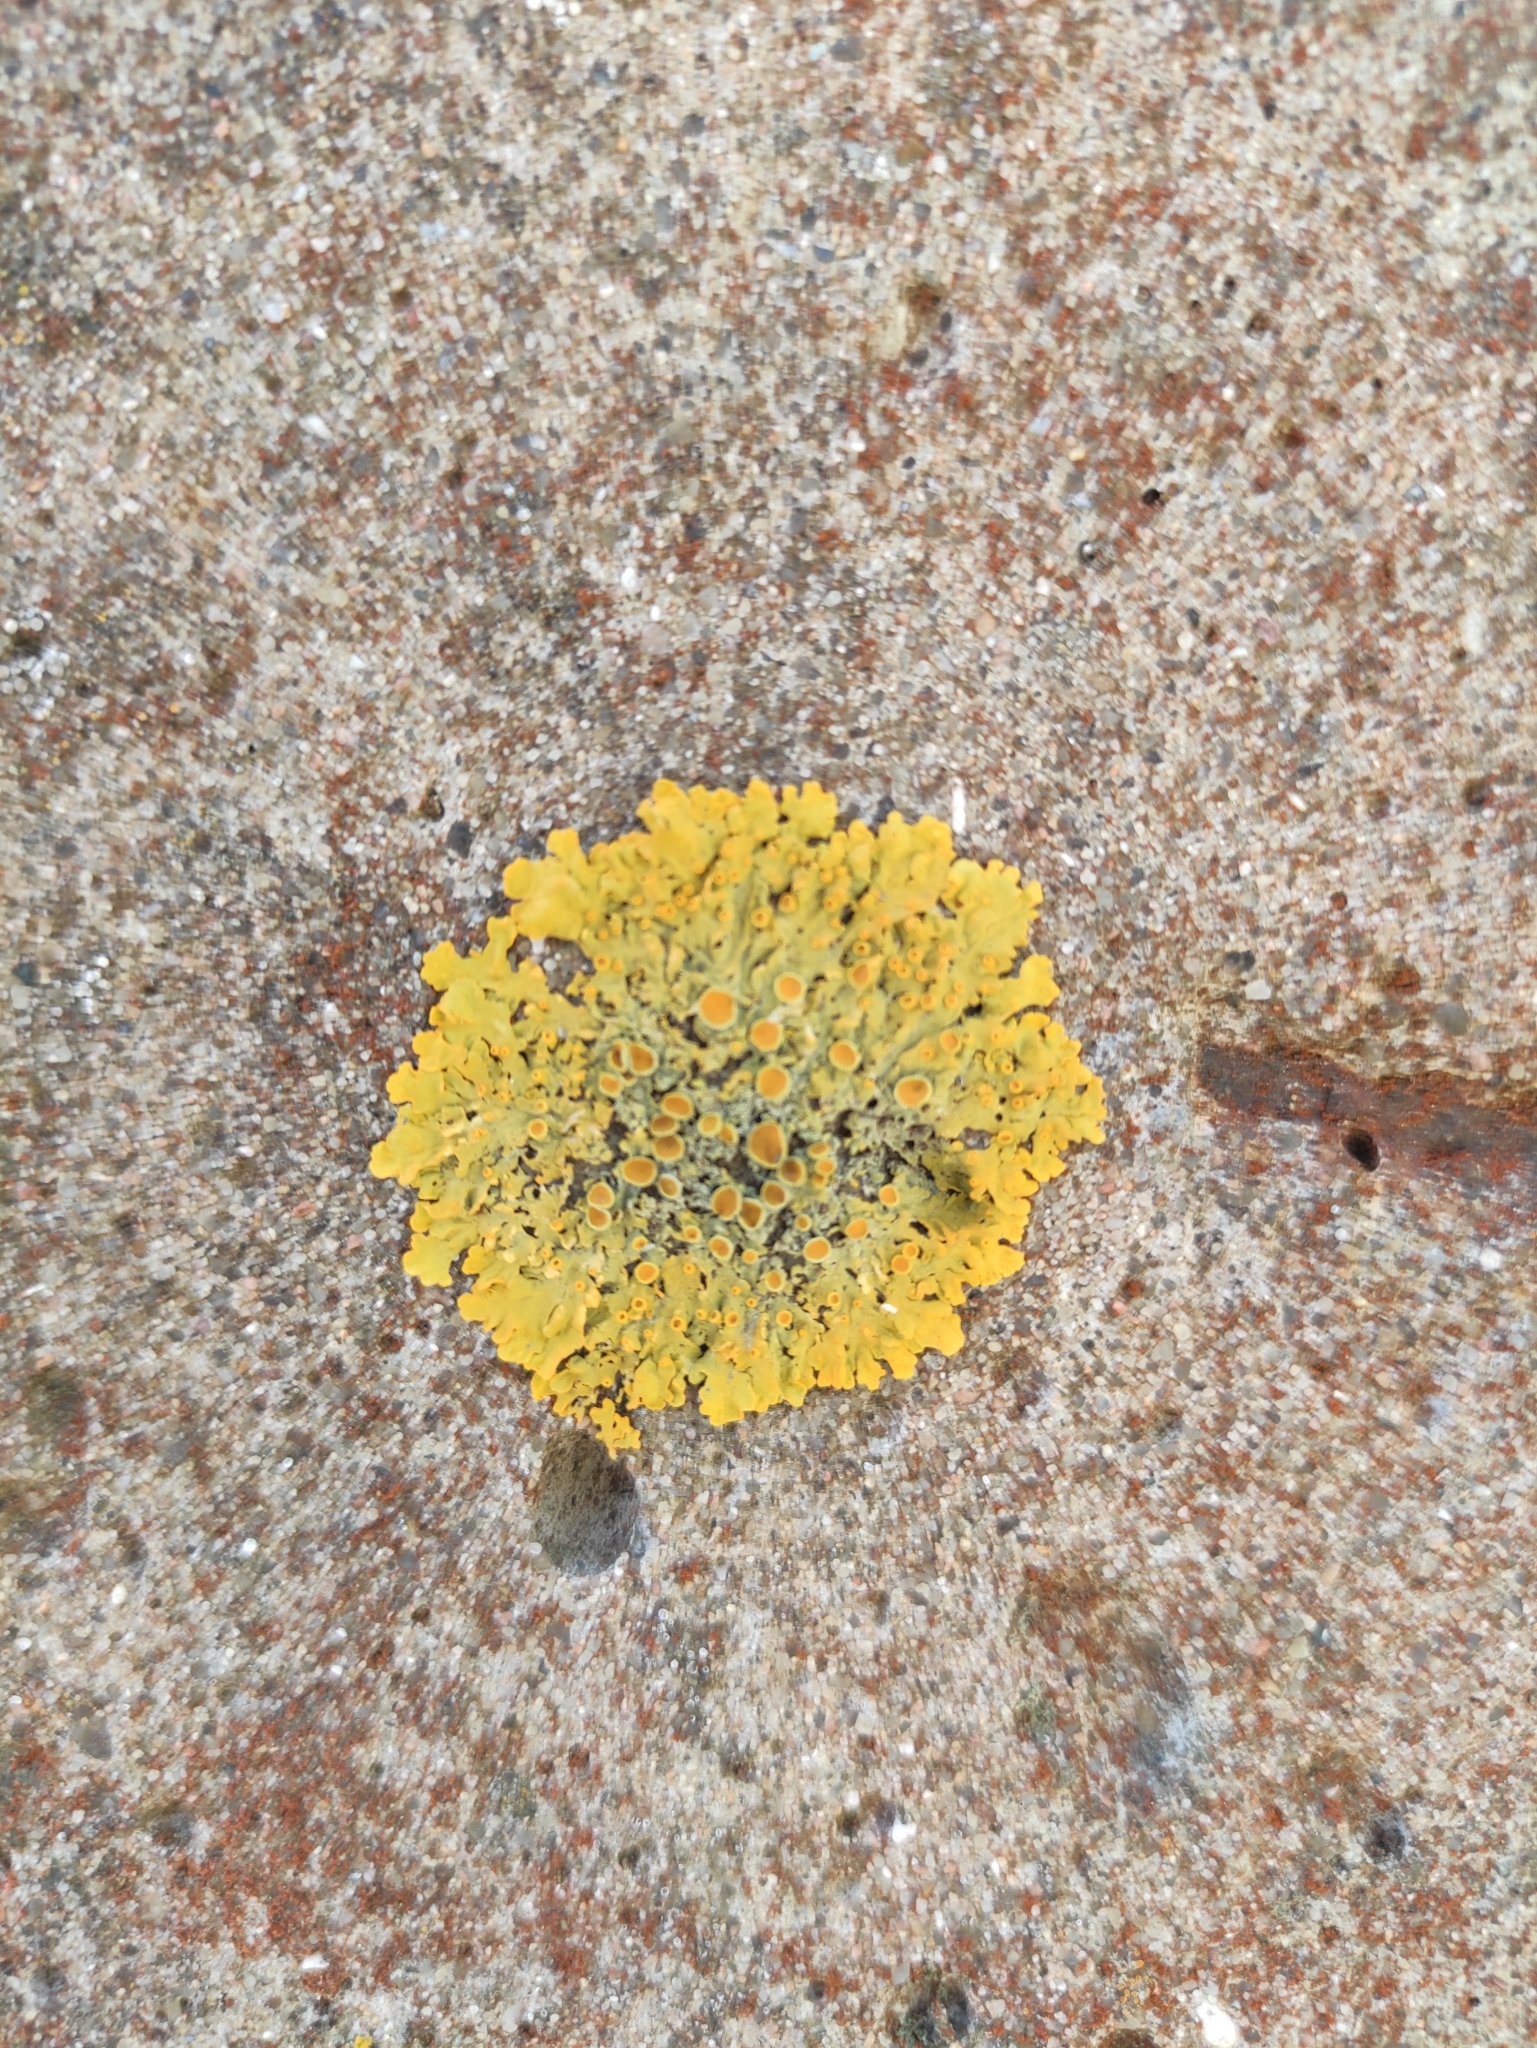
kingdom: Fungi
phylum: Ascomycota
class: Lecanoromycetes
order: Teloschistales
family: Teloschistaceae
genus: Xanthoria
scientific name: Xanthoria parietina
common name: Common orange lichen
